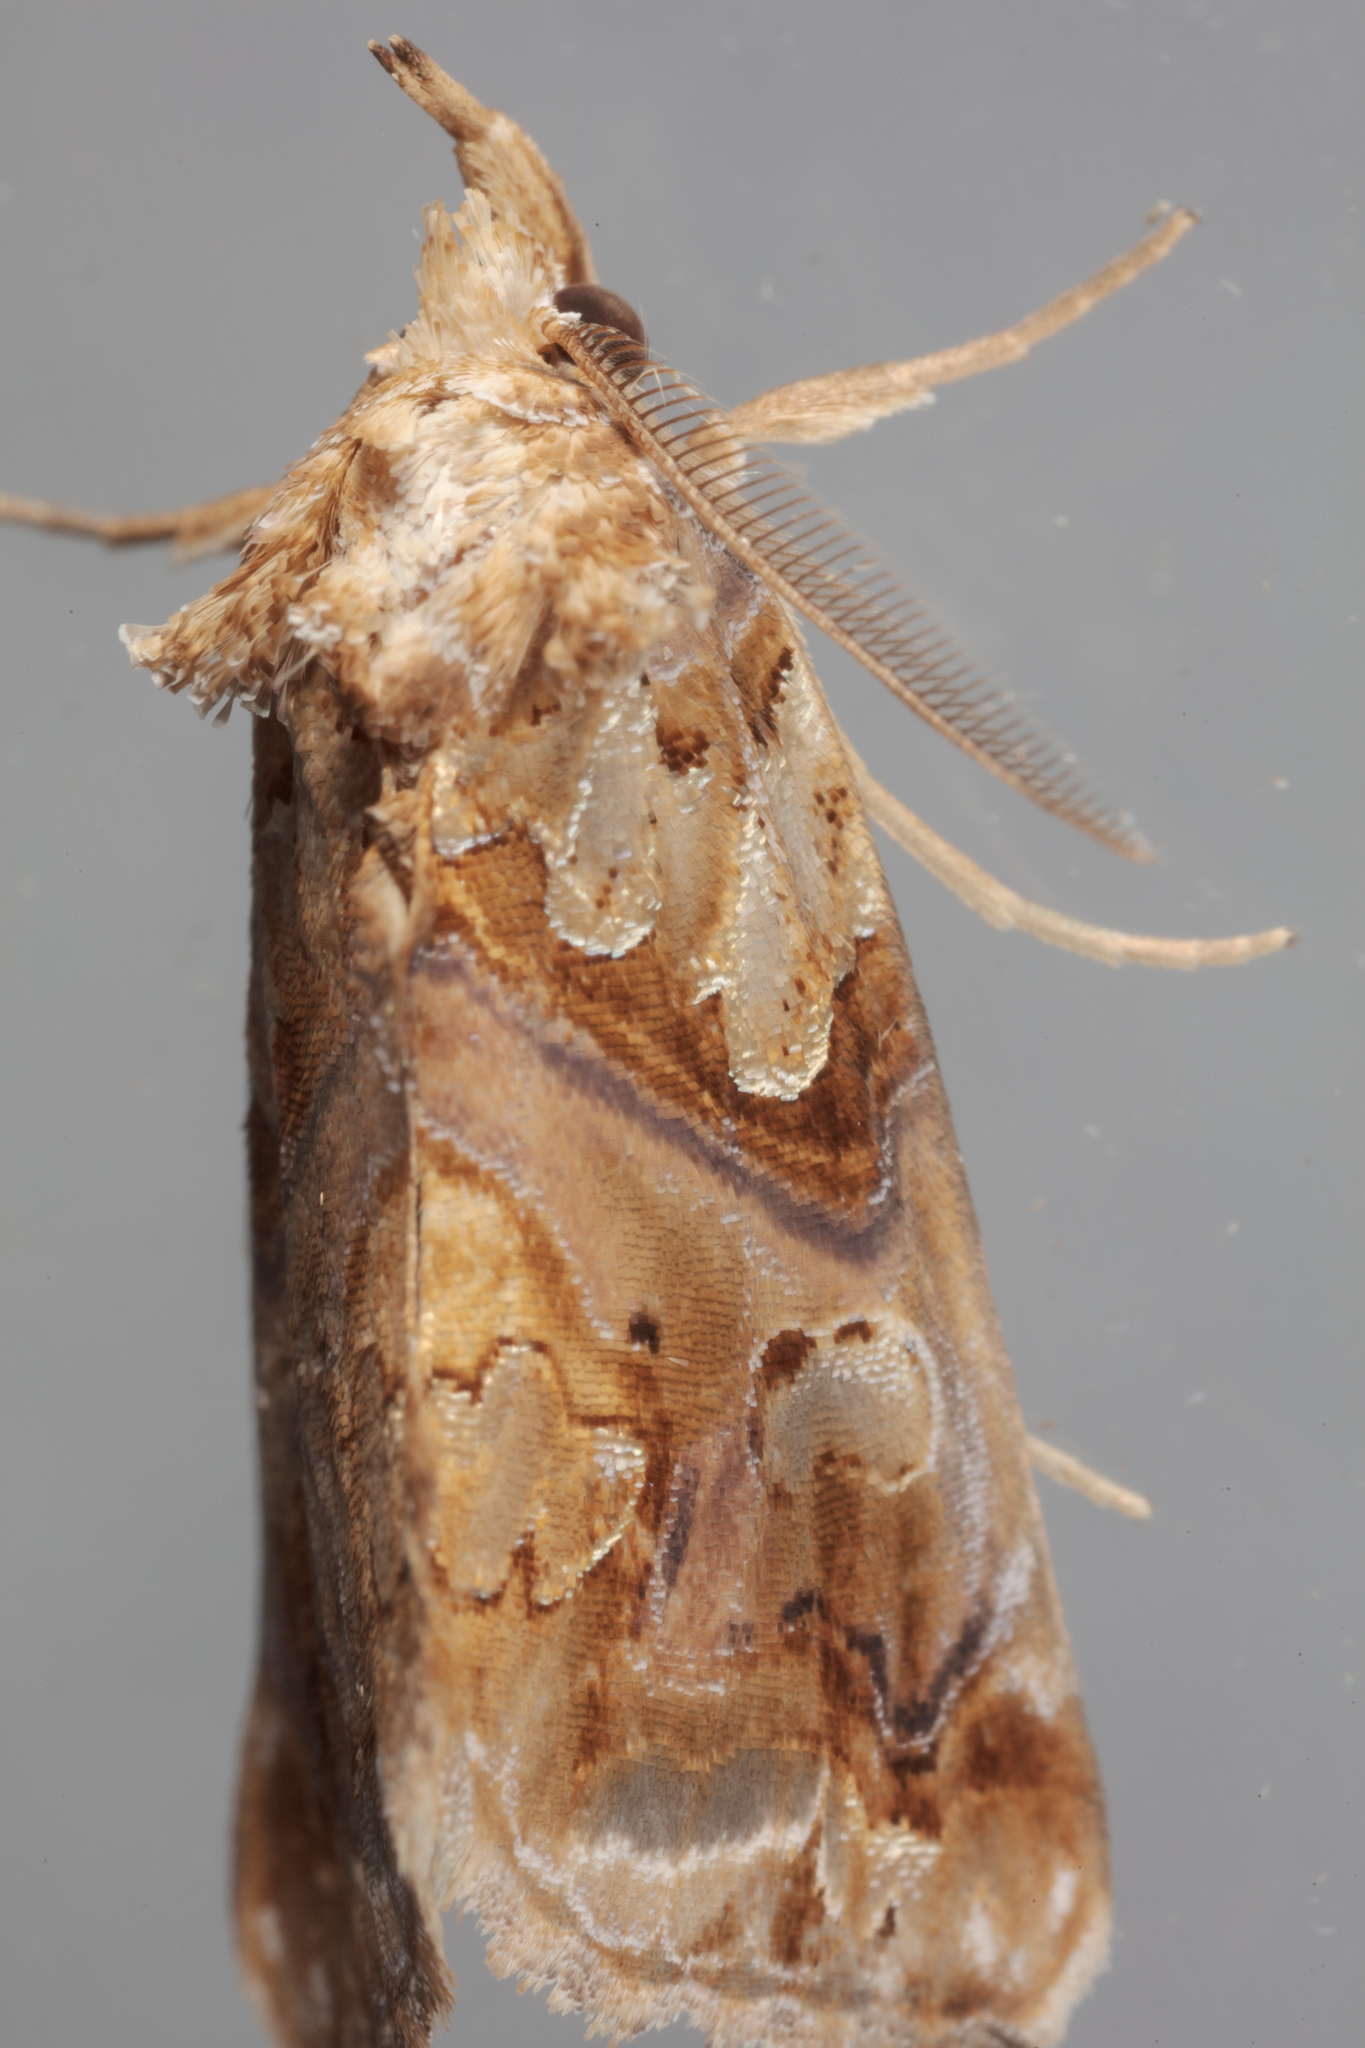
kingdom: Animalia
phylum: Arthropoda
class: Insecta
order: Lepidoptera
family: Erebidae
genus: Plusiodonta
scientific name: Plusiodonta compressipalpis
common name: Moonseed moth
